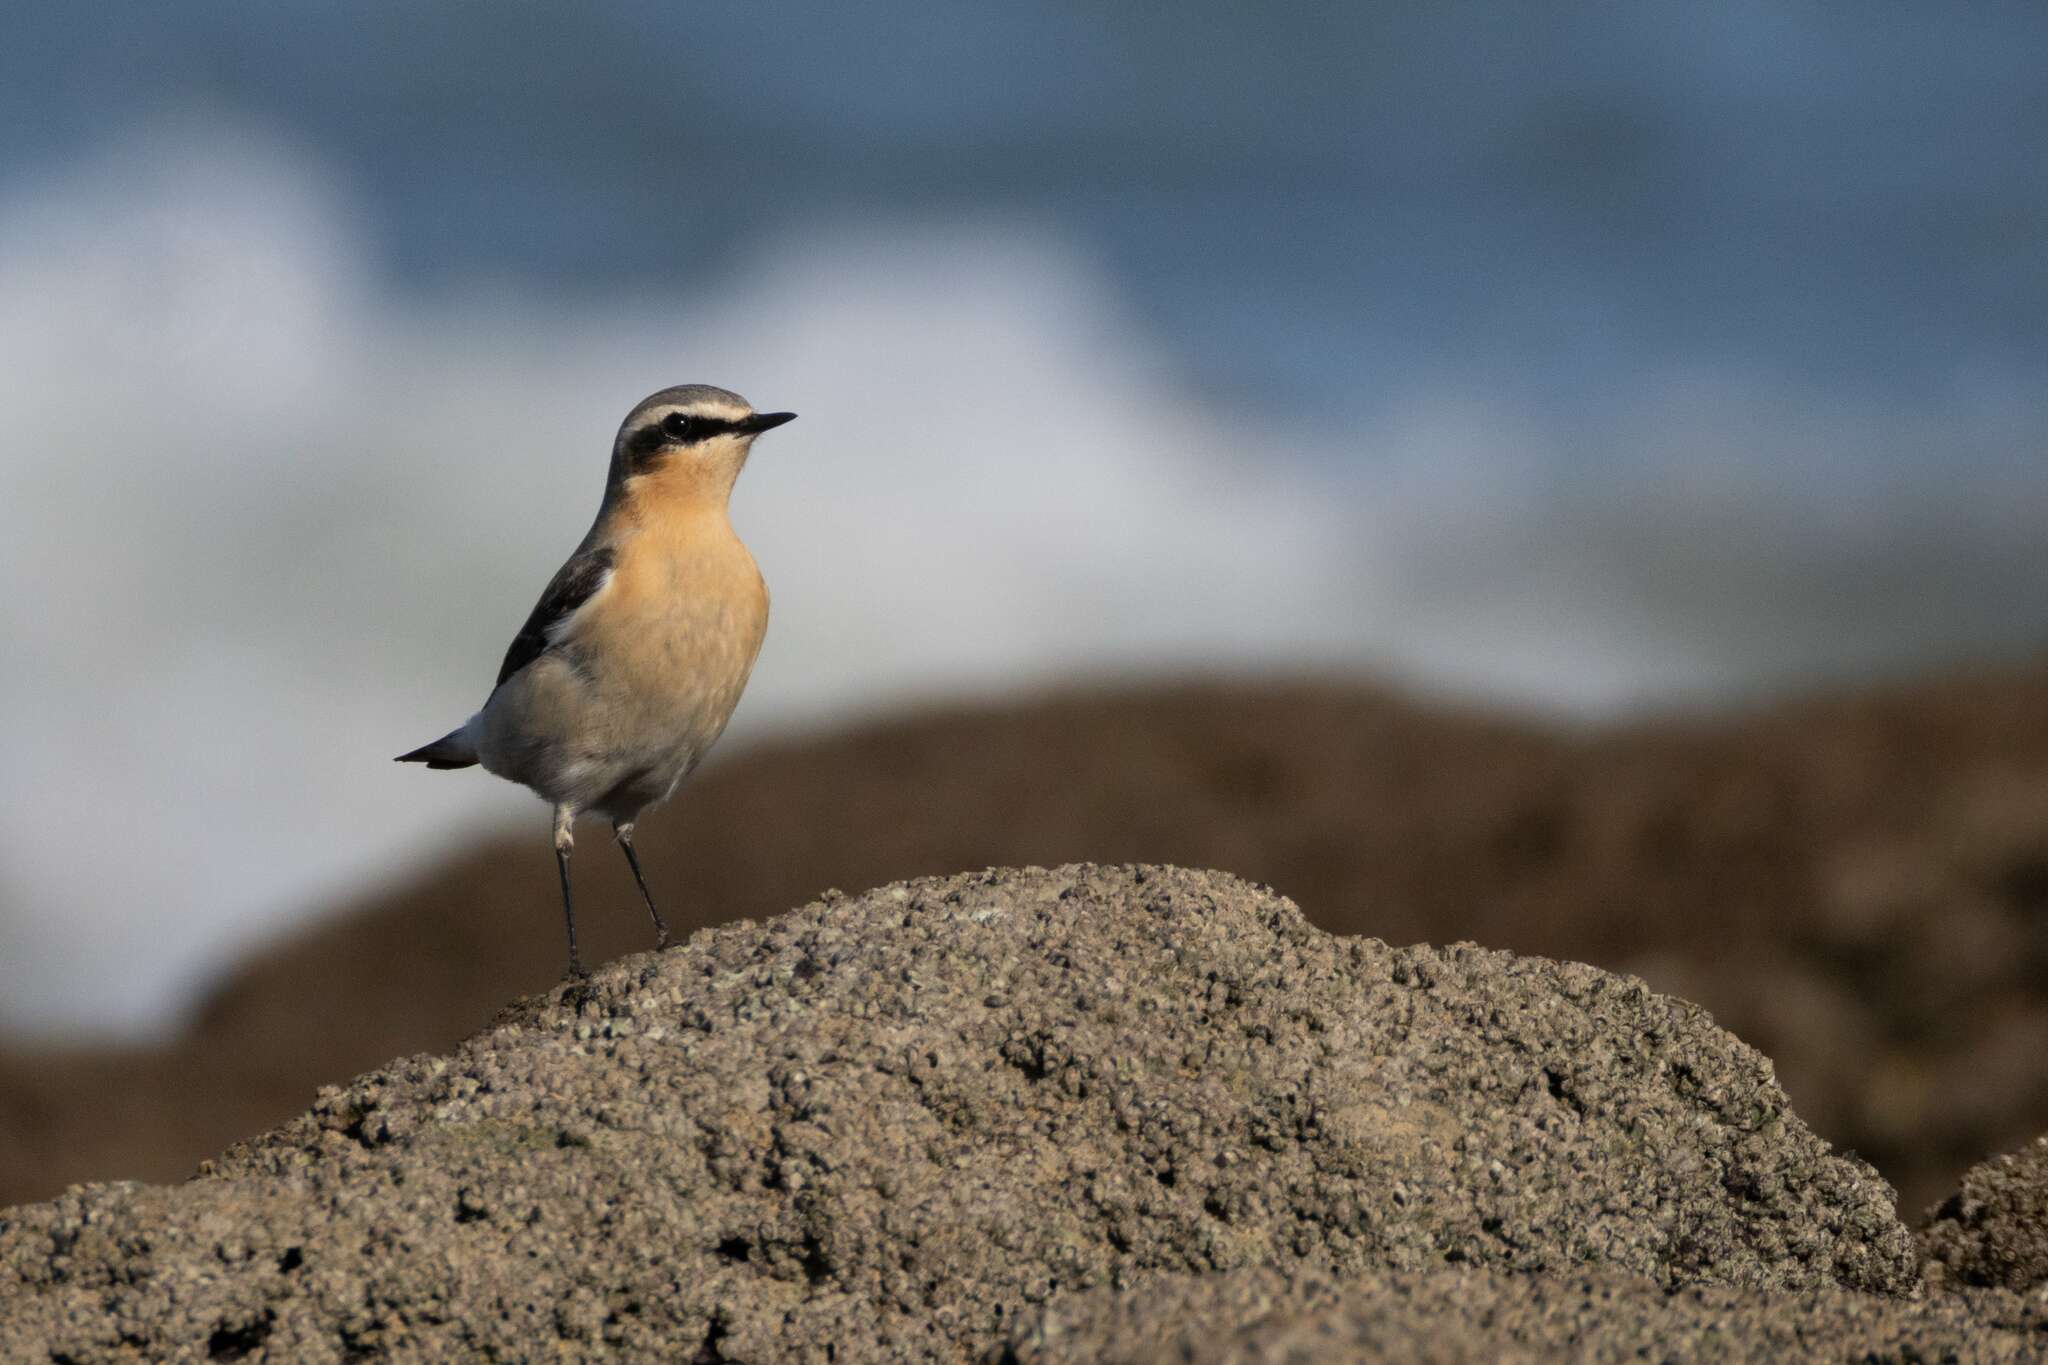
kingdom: Animalia
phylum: Chordata
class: Aves
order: Passeriformes
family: Muscicapidae
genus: Oenanthe
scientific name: Oenanthe oenanthe
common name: Northern wheatear
